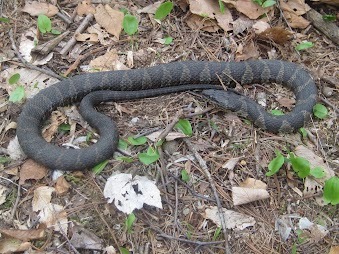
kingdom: Animalia
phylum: Chordata
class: Squamata
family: Colubridae
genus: Nerodia
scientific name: Nerodia sipedon
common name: Northern water snake
